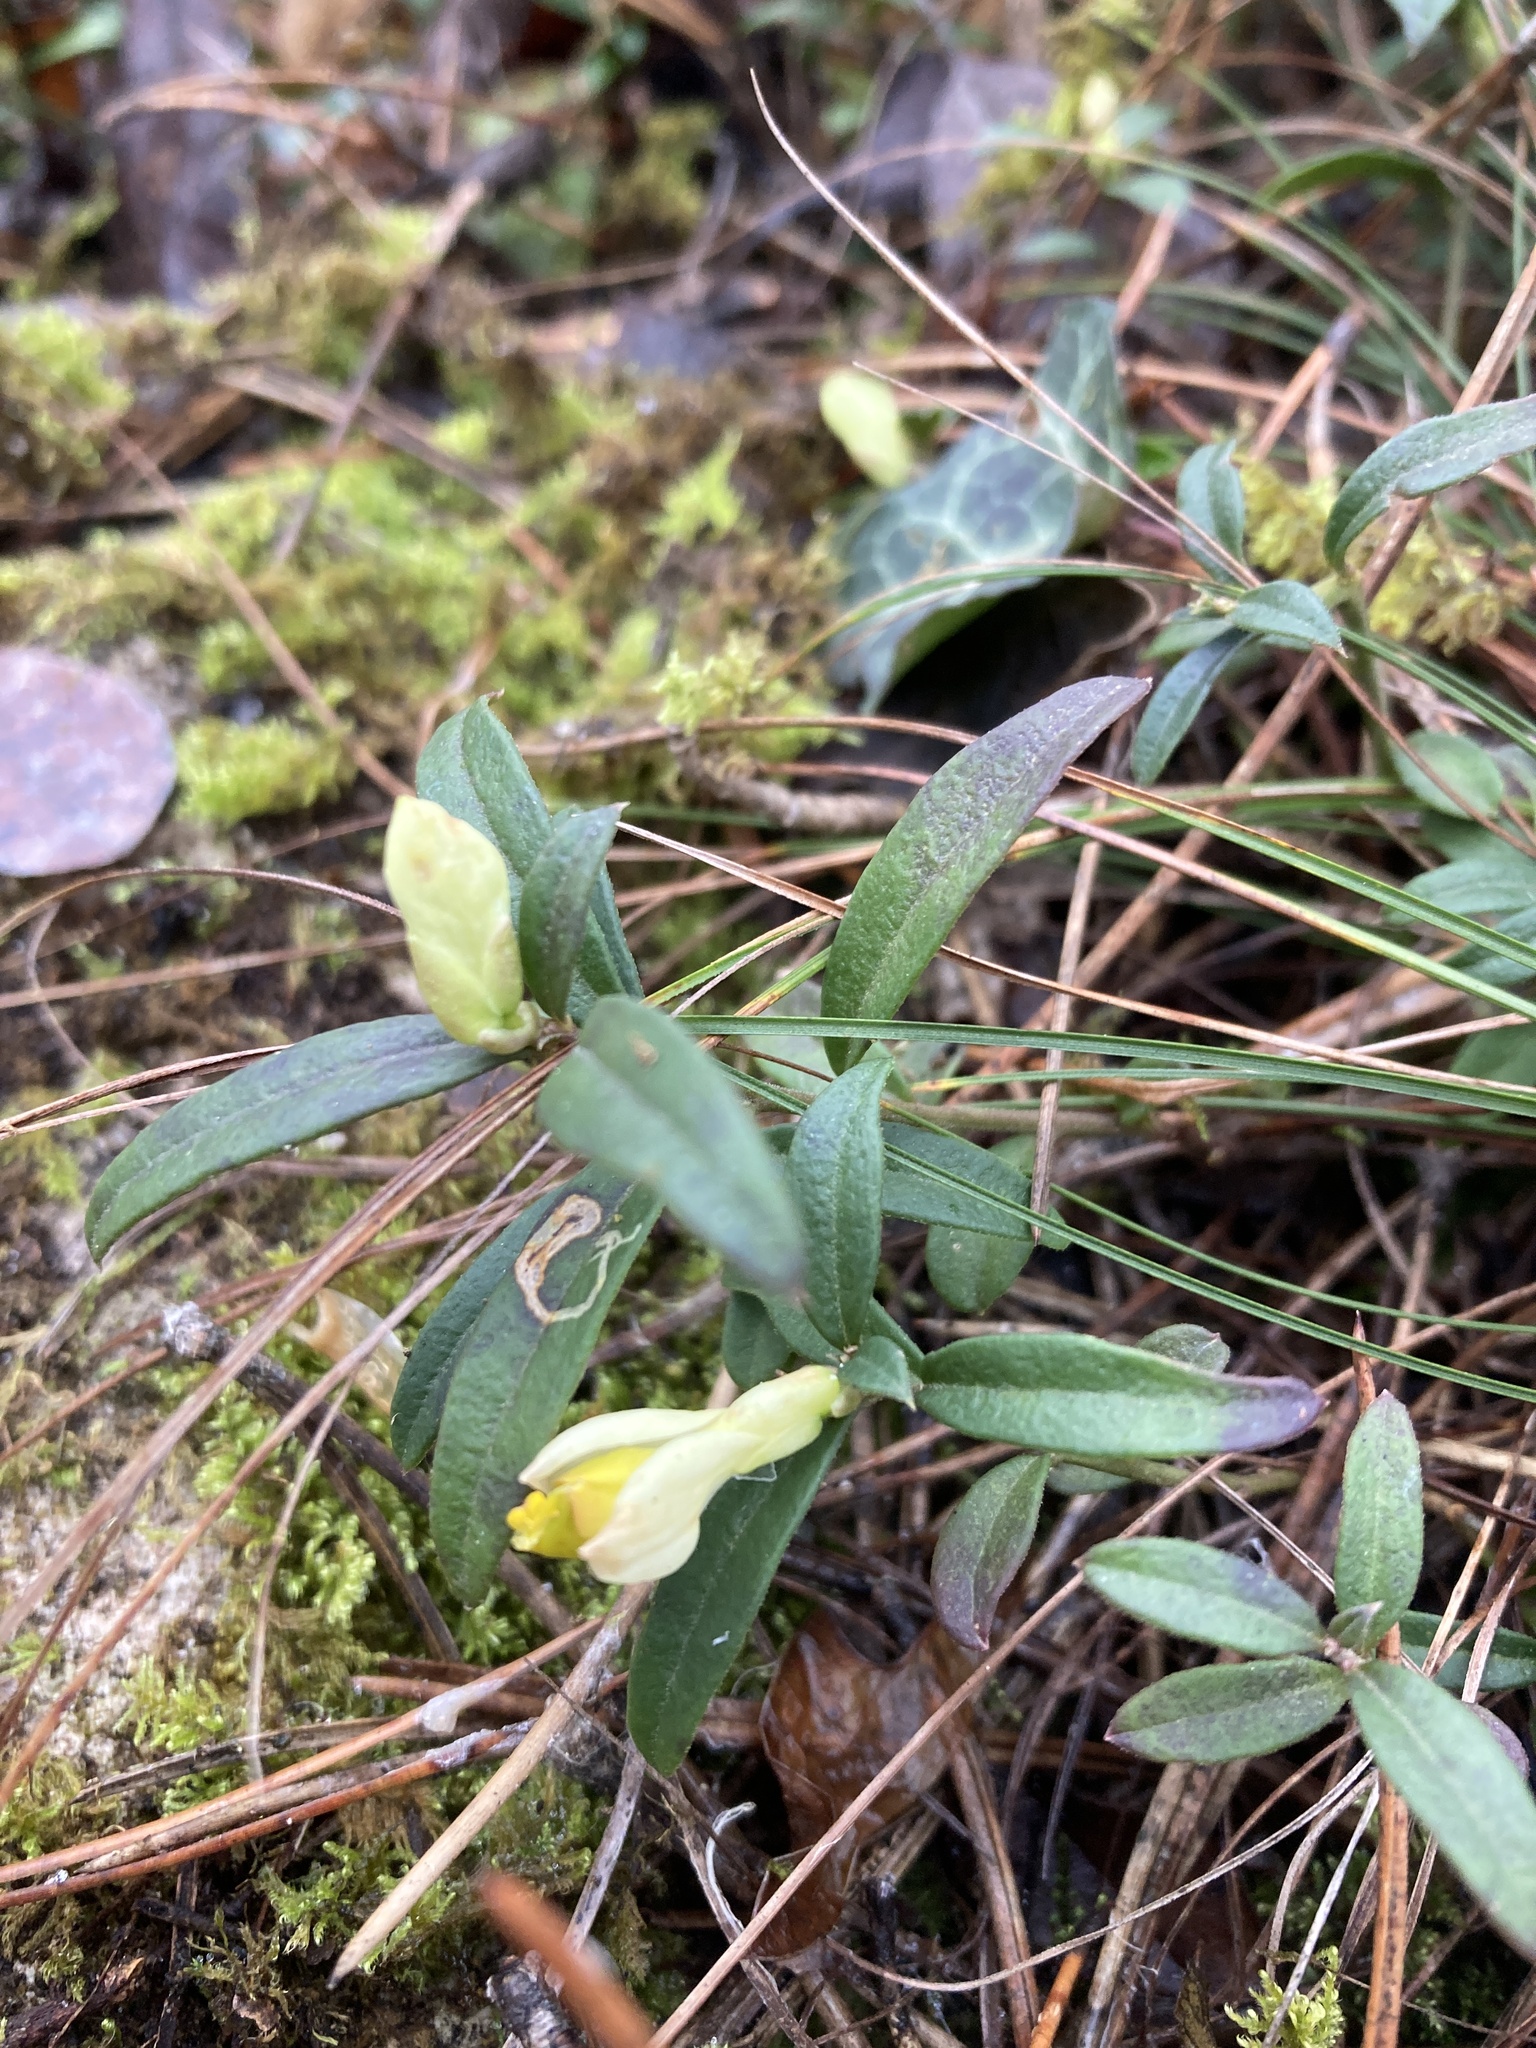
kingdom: Plantae
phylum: Tracheophyta
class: Magnoliopsida
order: Fabales
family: Polygalaceae
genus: Polygaloides
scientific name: Polygaloides chamaebuxus
